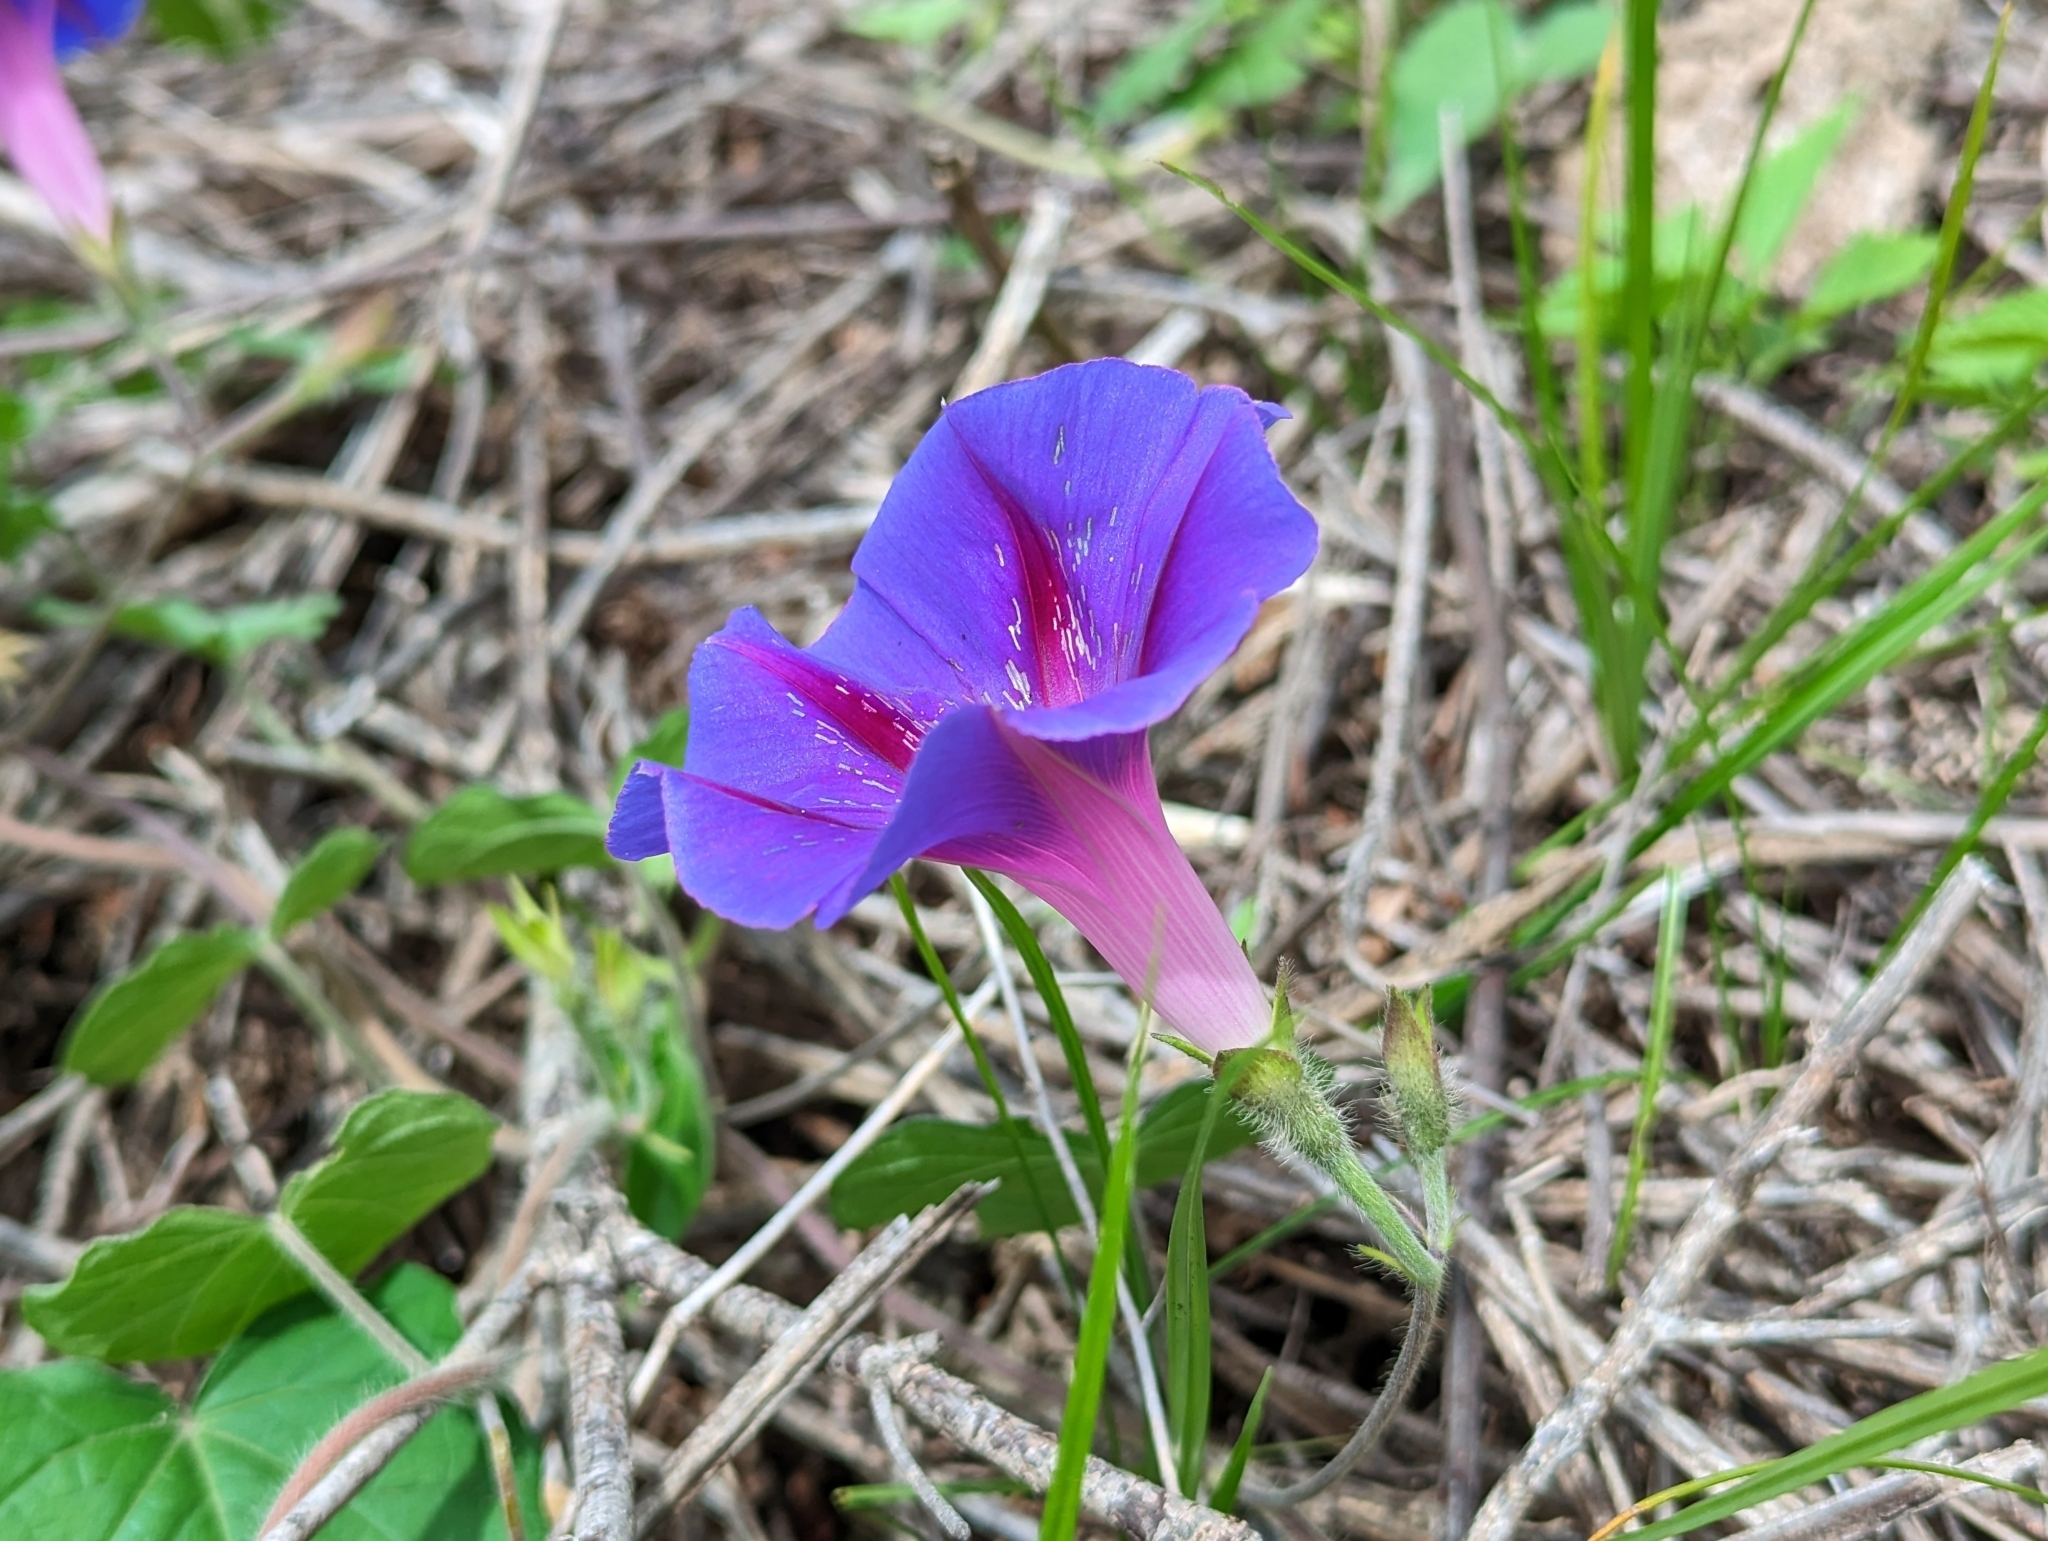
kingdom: Plantae
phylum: Tracheophyta
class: Magnoliopsida
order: Solanales
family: Convolvulaceae
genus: Ipomoea
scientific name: Ipomoea purpurea
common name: Common morning-glory
